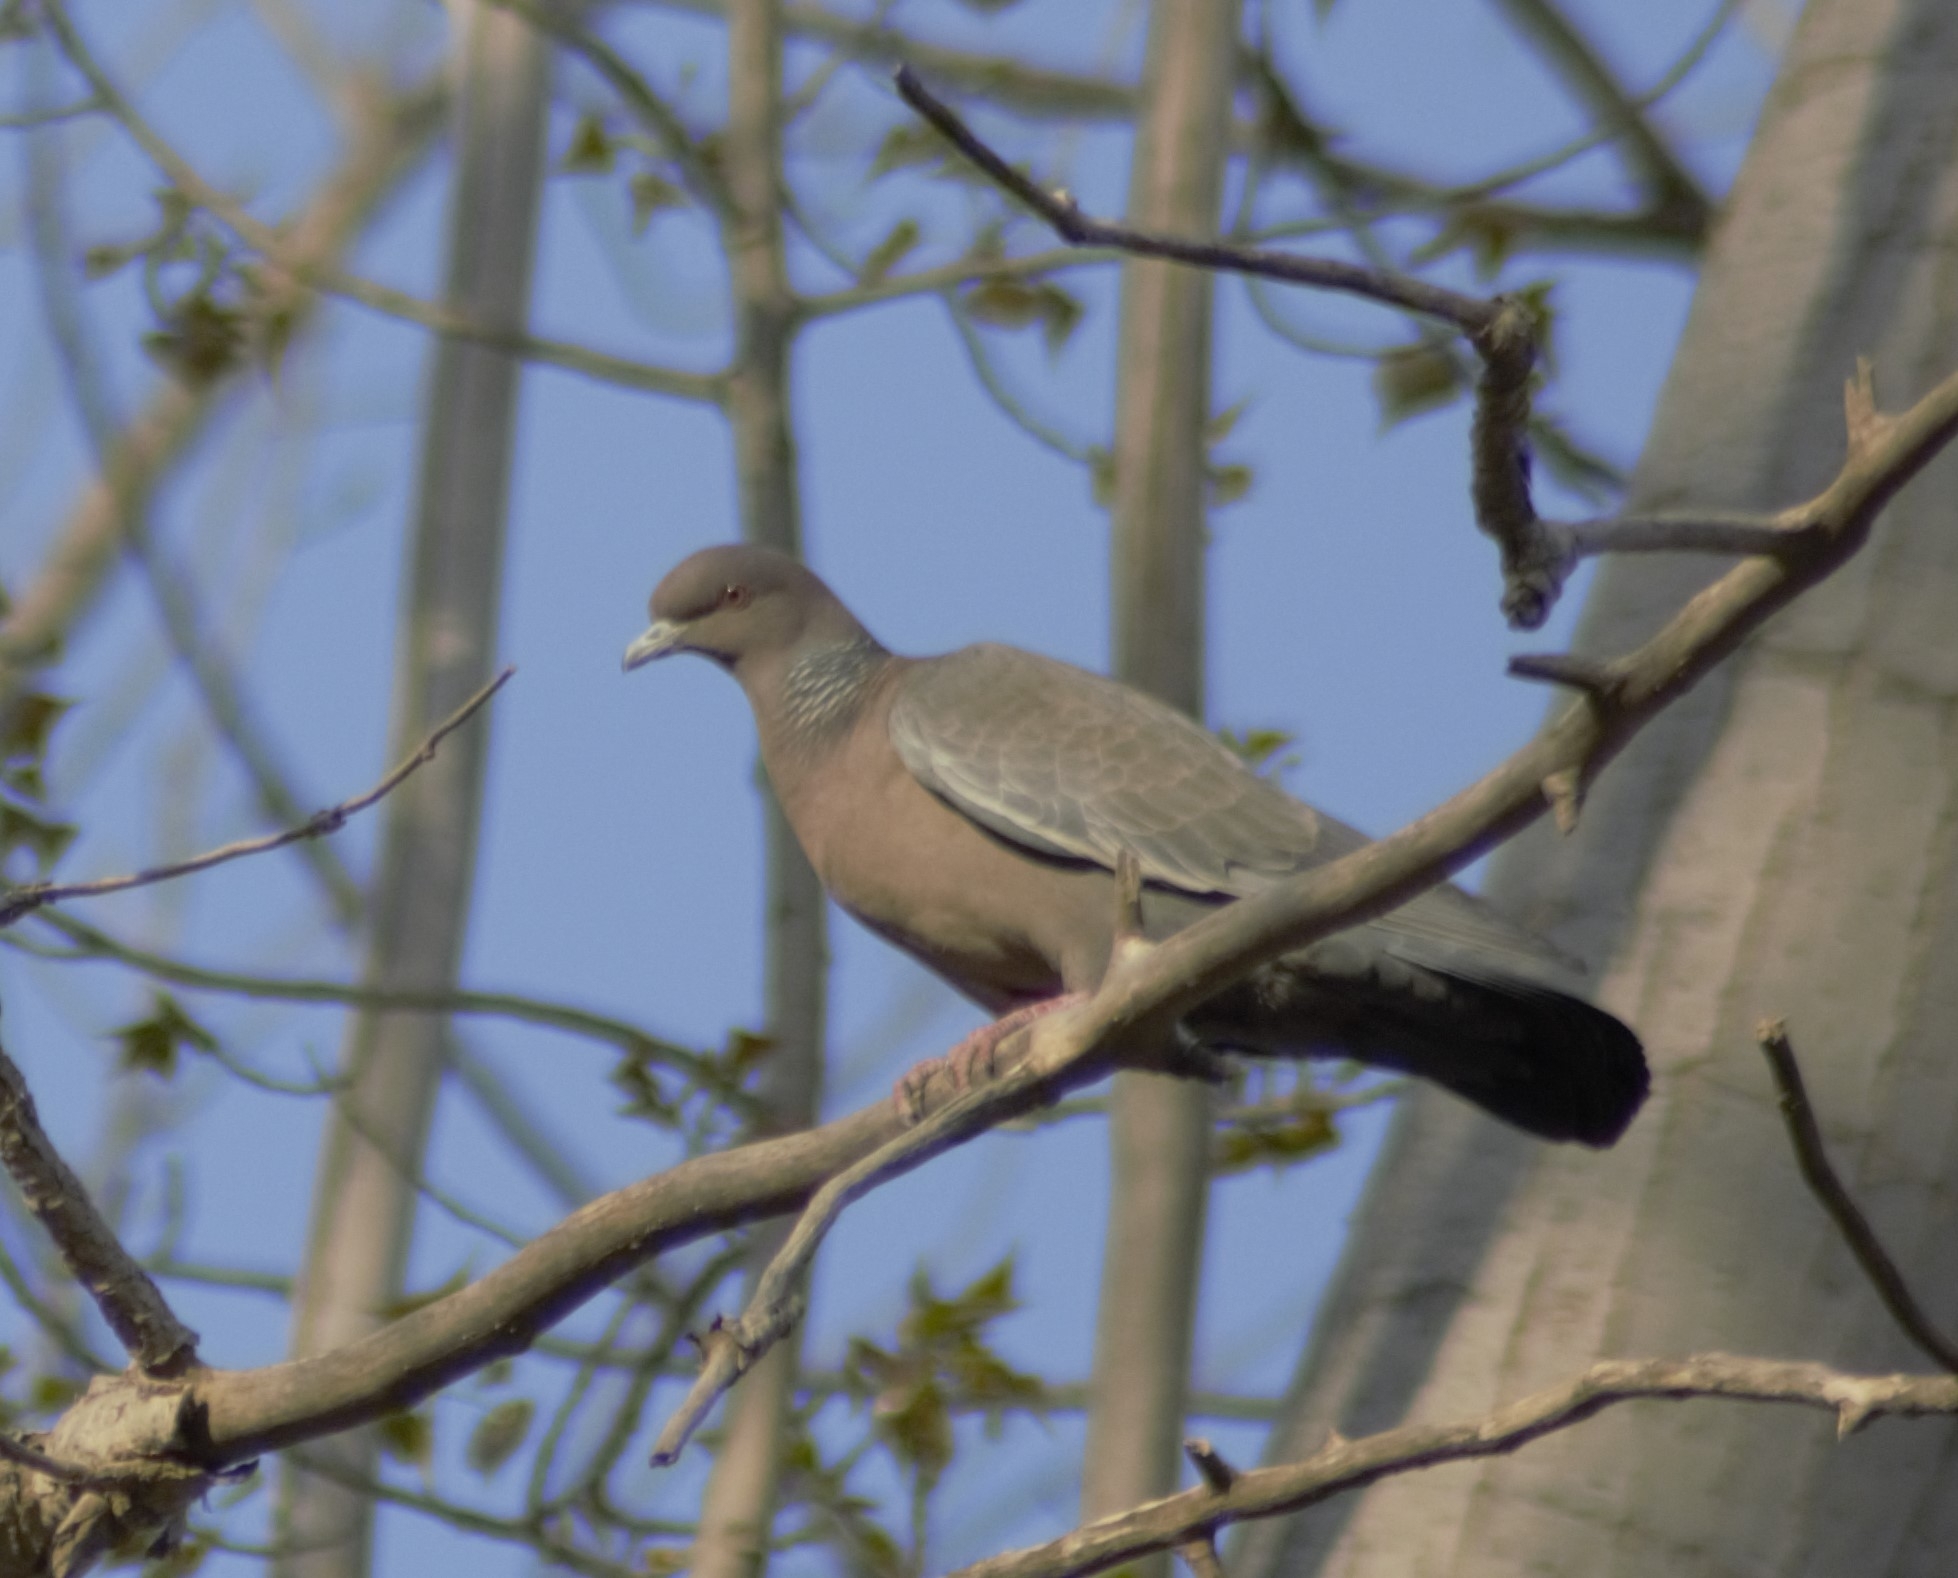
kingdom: Animalia
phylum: Chordata
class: Aves
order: Columbiformes
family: Columbidae
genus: Patagioenas
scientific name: Patagioenas picazuro
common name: Picazuro pigeon
